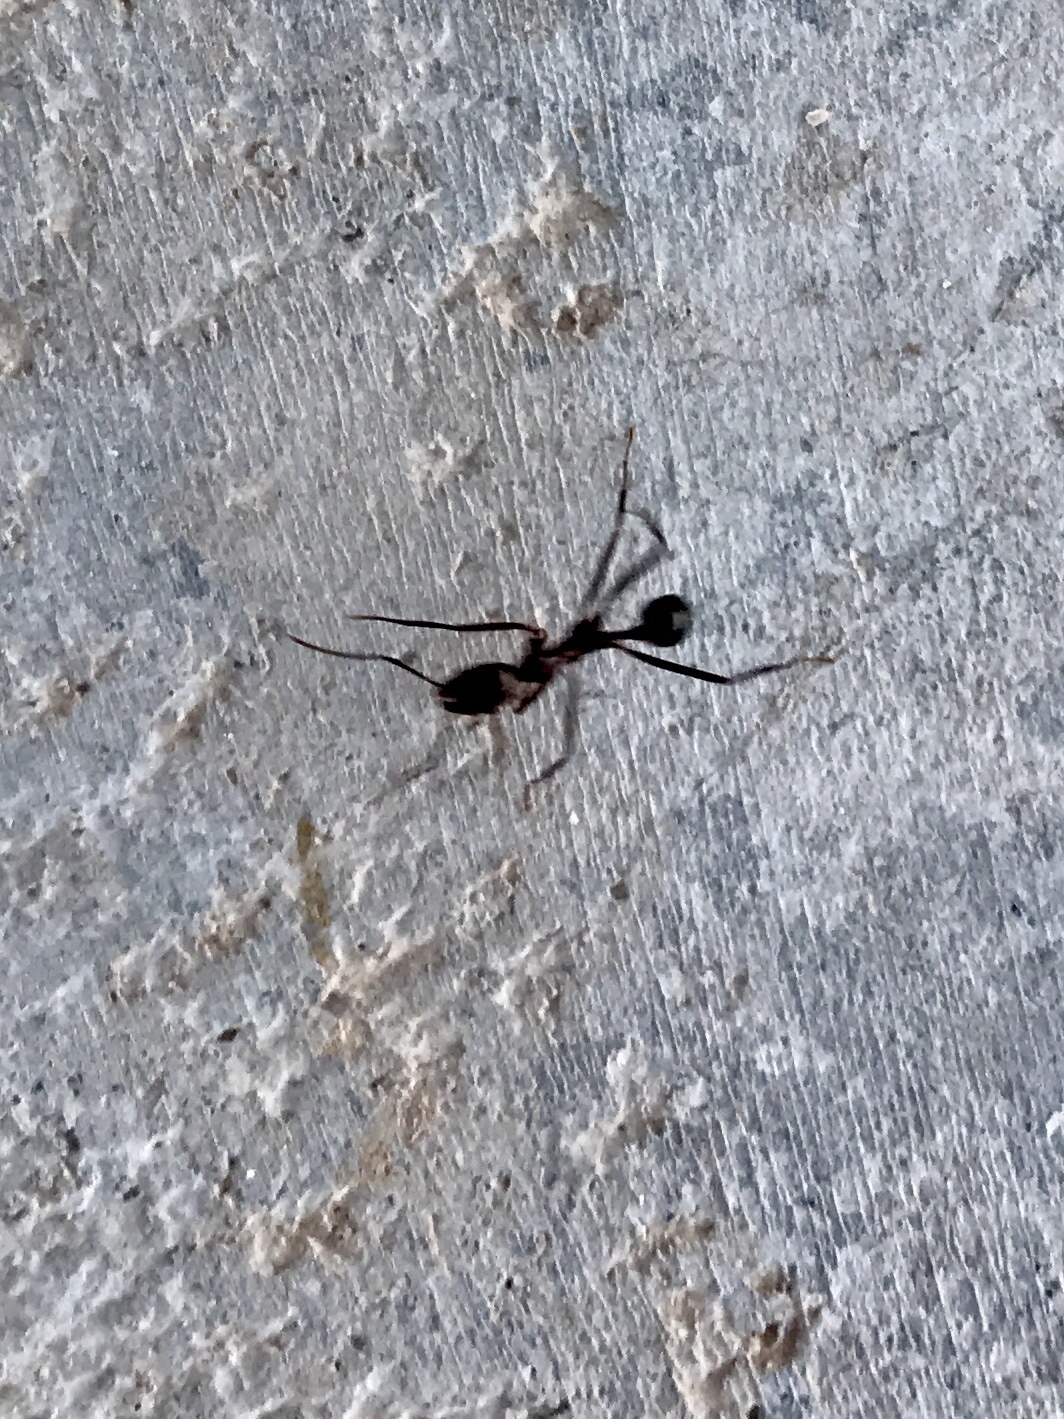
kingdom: Animalia
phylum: Arthropoda
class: Insecta
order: Hymenoptera
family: Formicidae
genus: Novomessor
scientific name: Novomessor cockerelli
